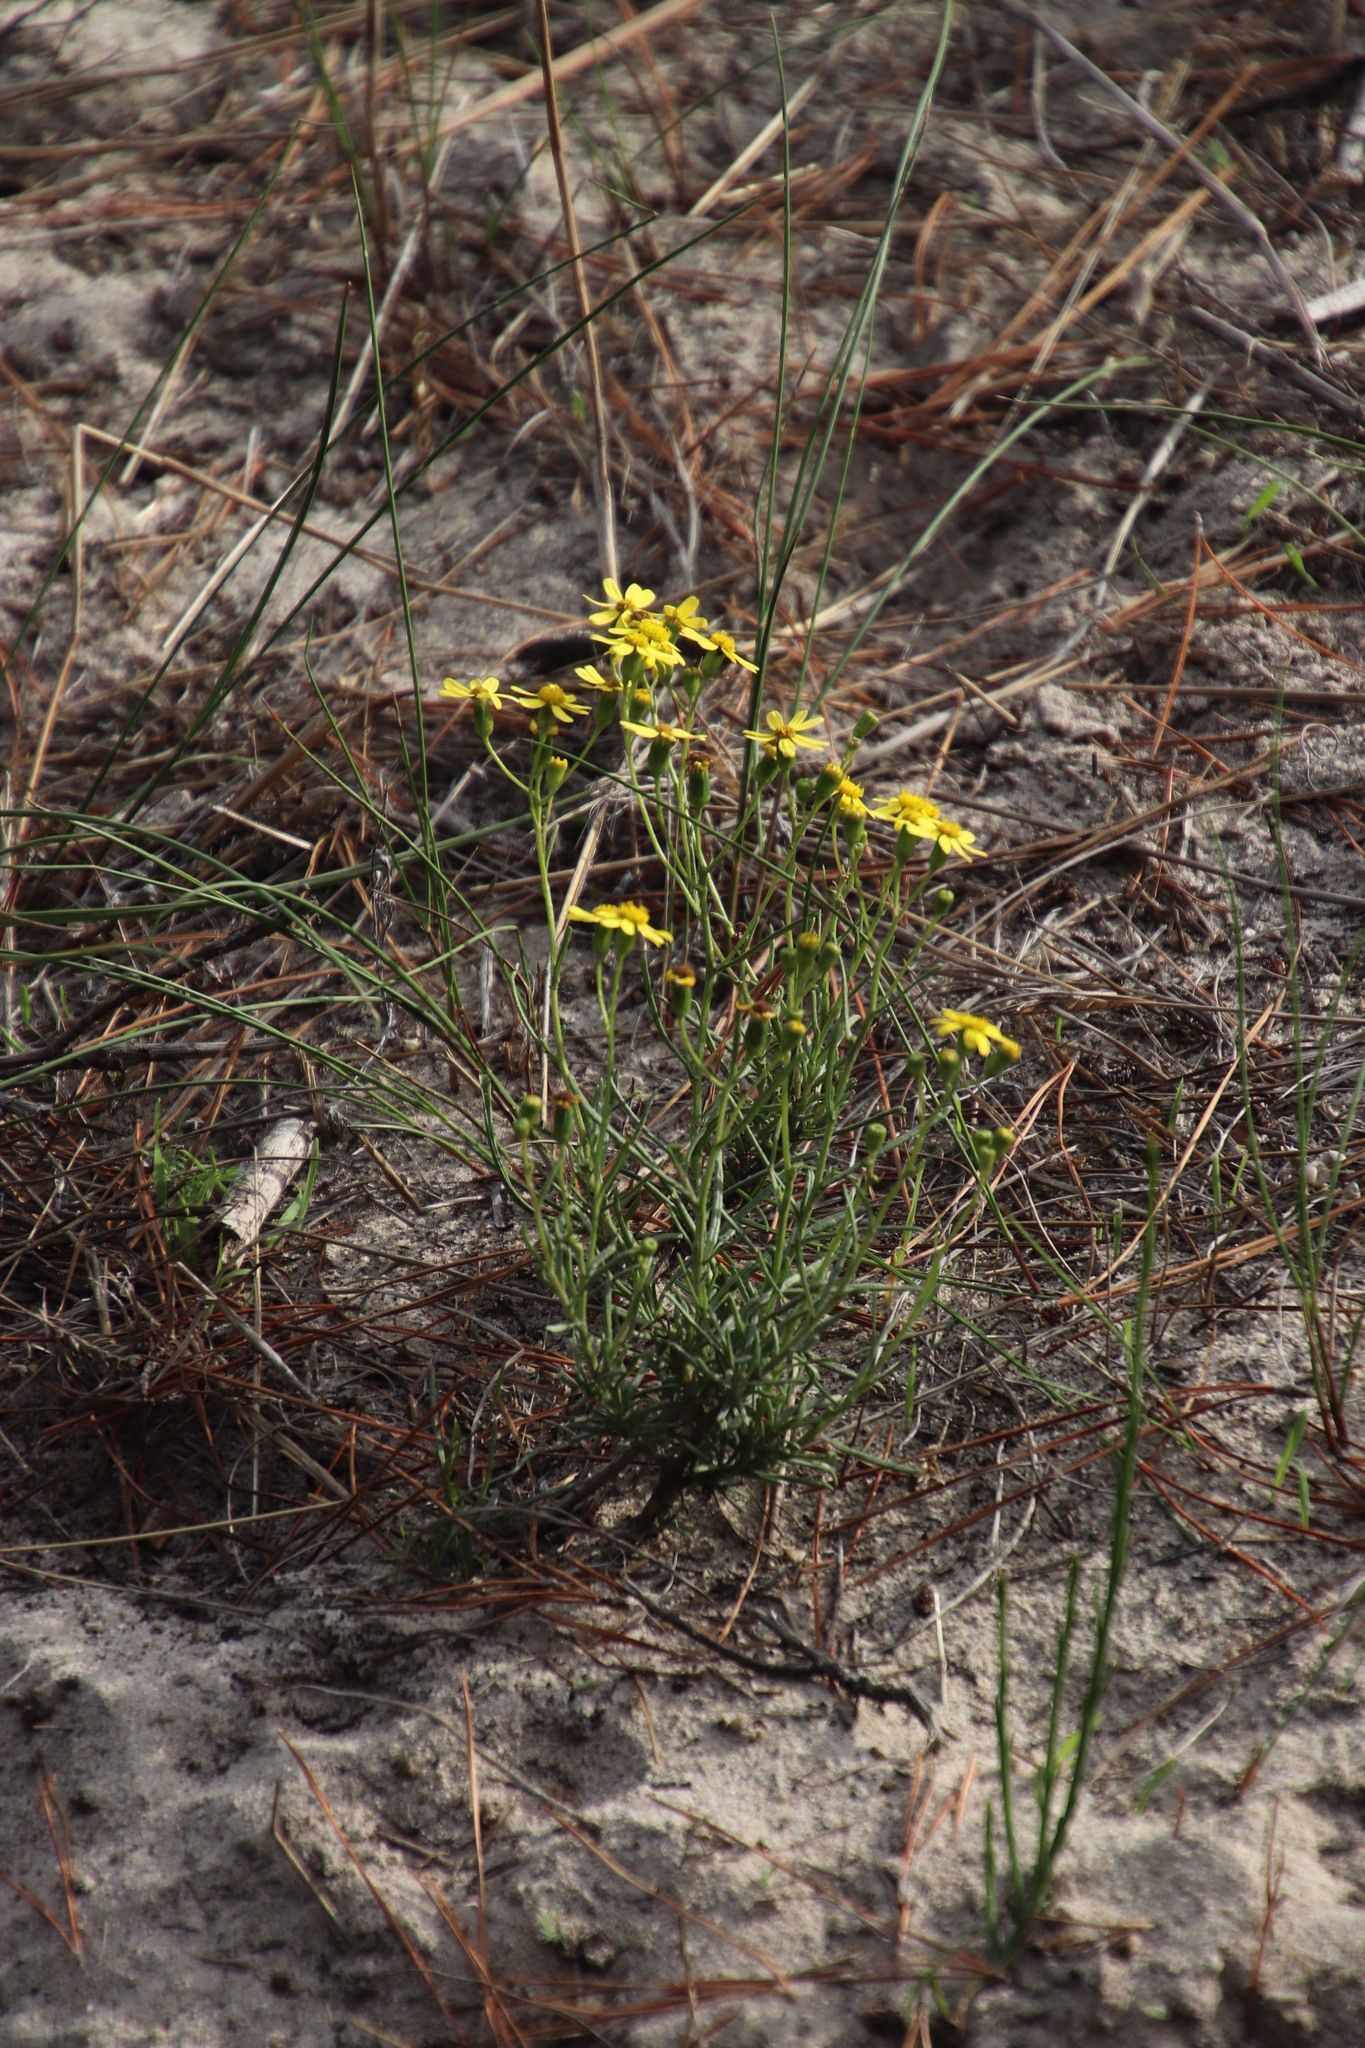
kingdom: Plantae
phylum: Tracheophyta
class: Magnoliopsida
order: Asterales
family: Asteraceae
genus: Senecio
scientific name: Senecio burchellii
